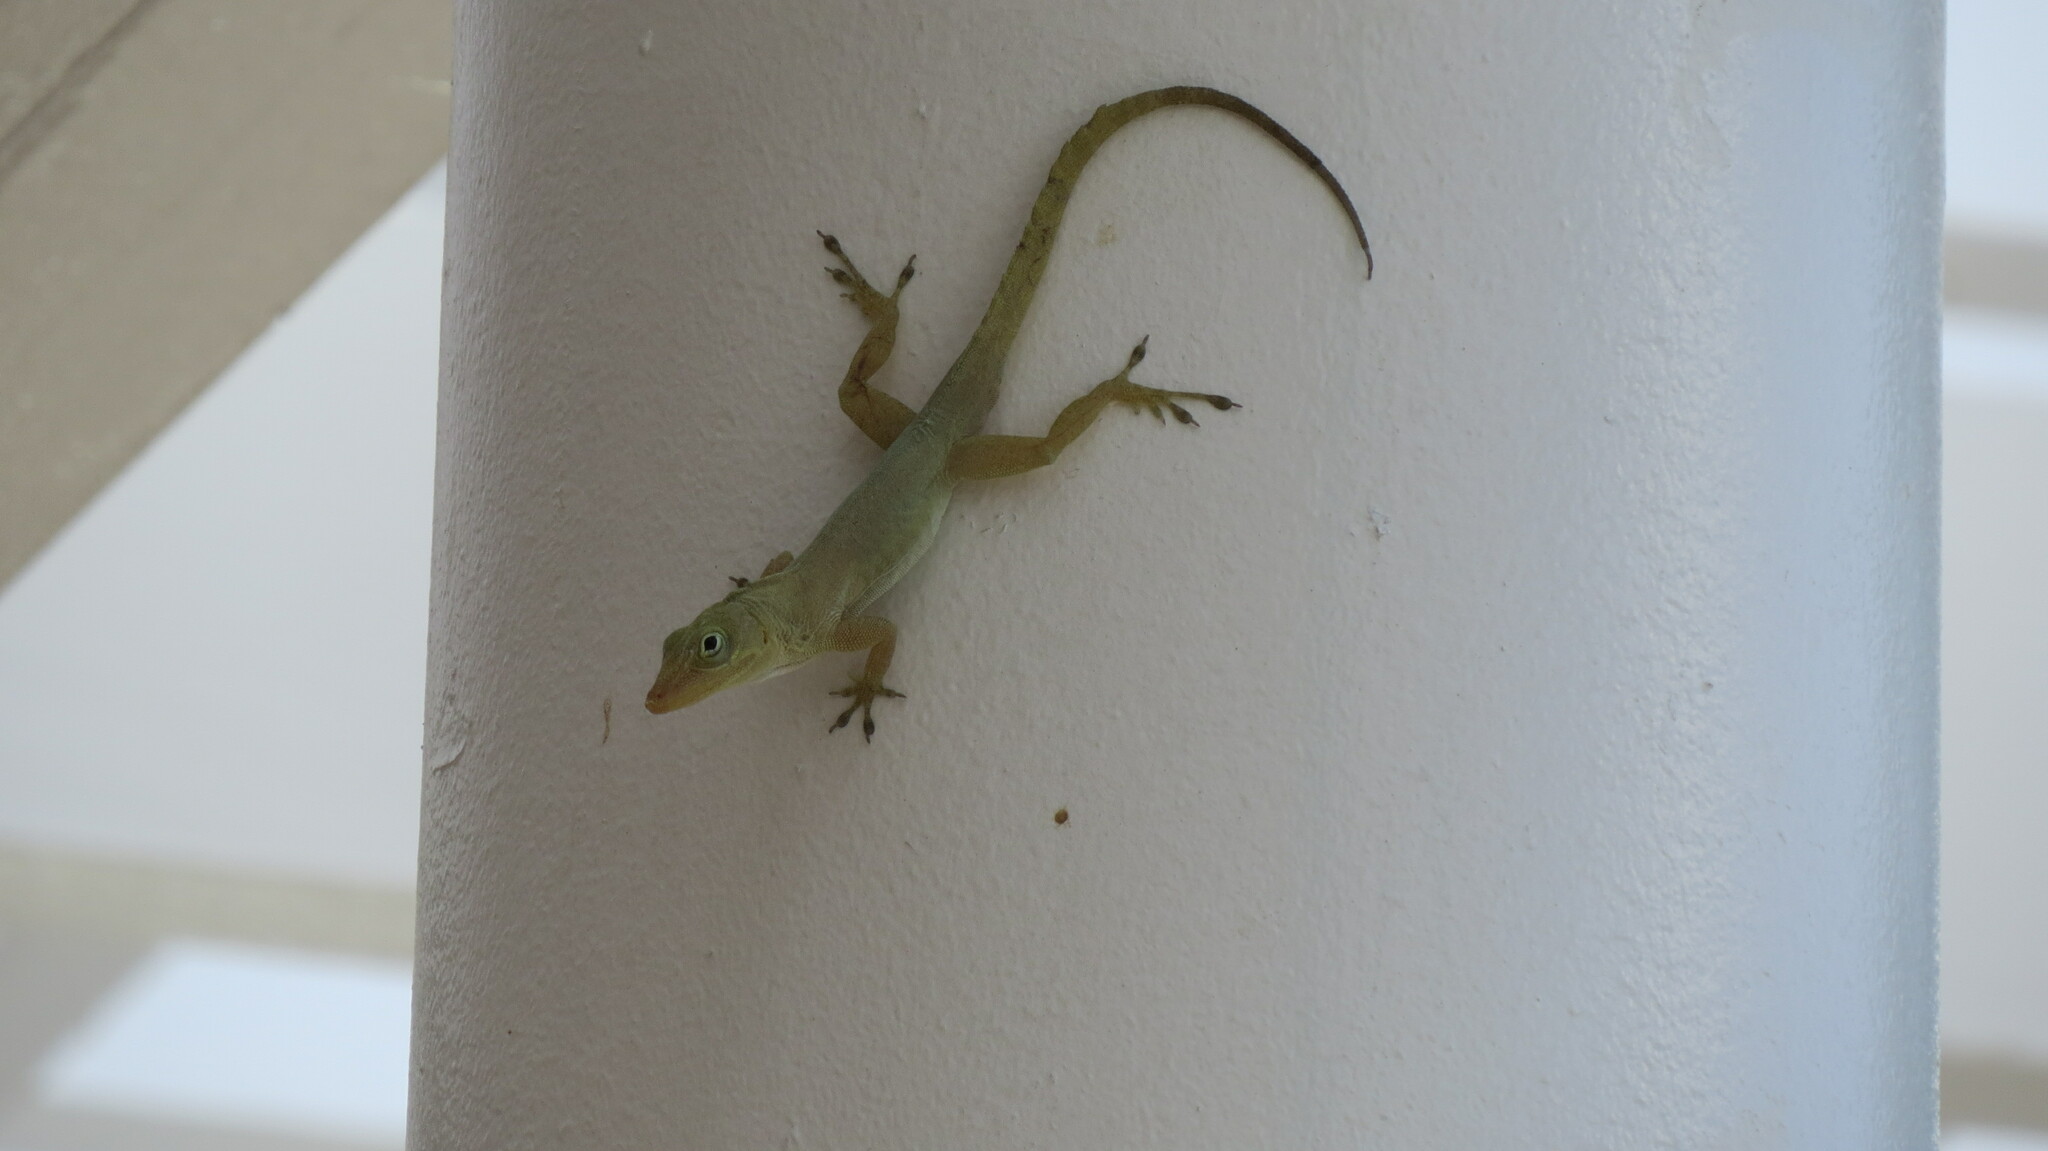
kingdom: Animalia
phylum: Chordata
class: Squamata
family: Dactyloidae
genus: Anolis
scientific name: Anolis acutus
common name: Saint croix's anole
